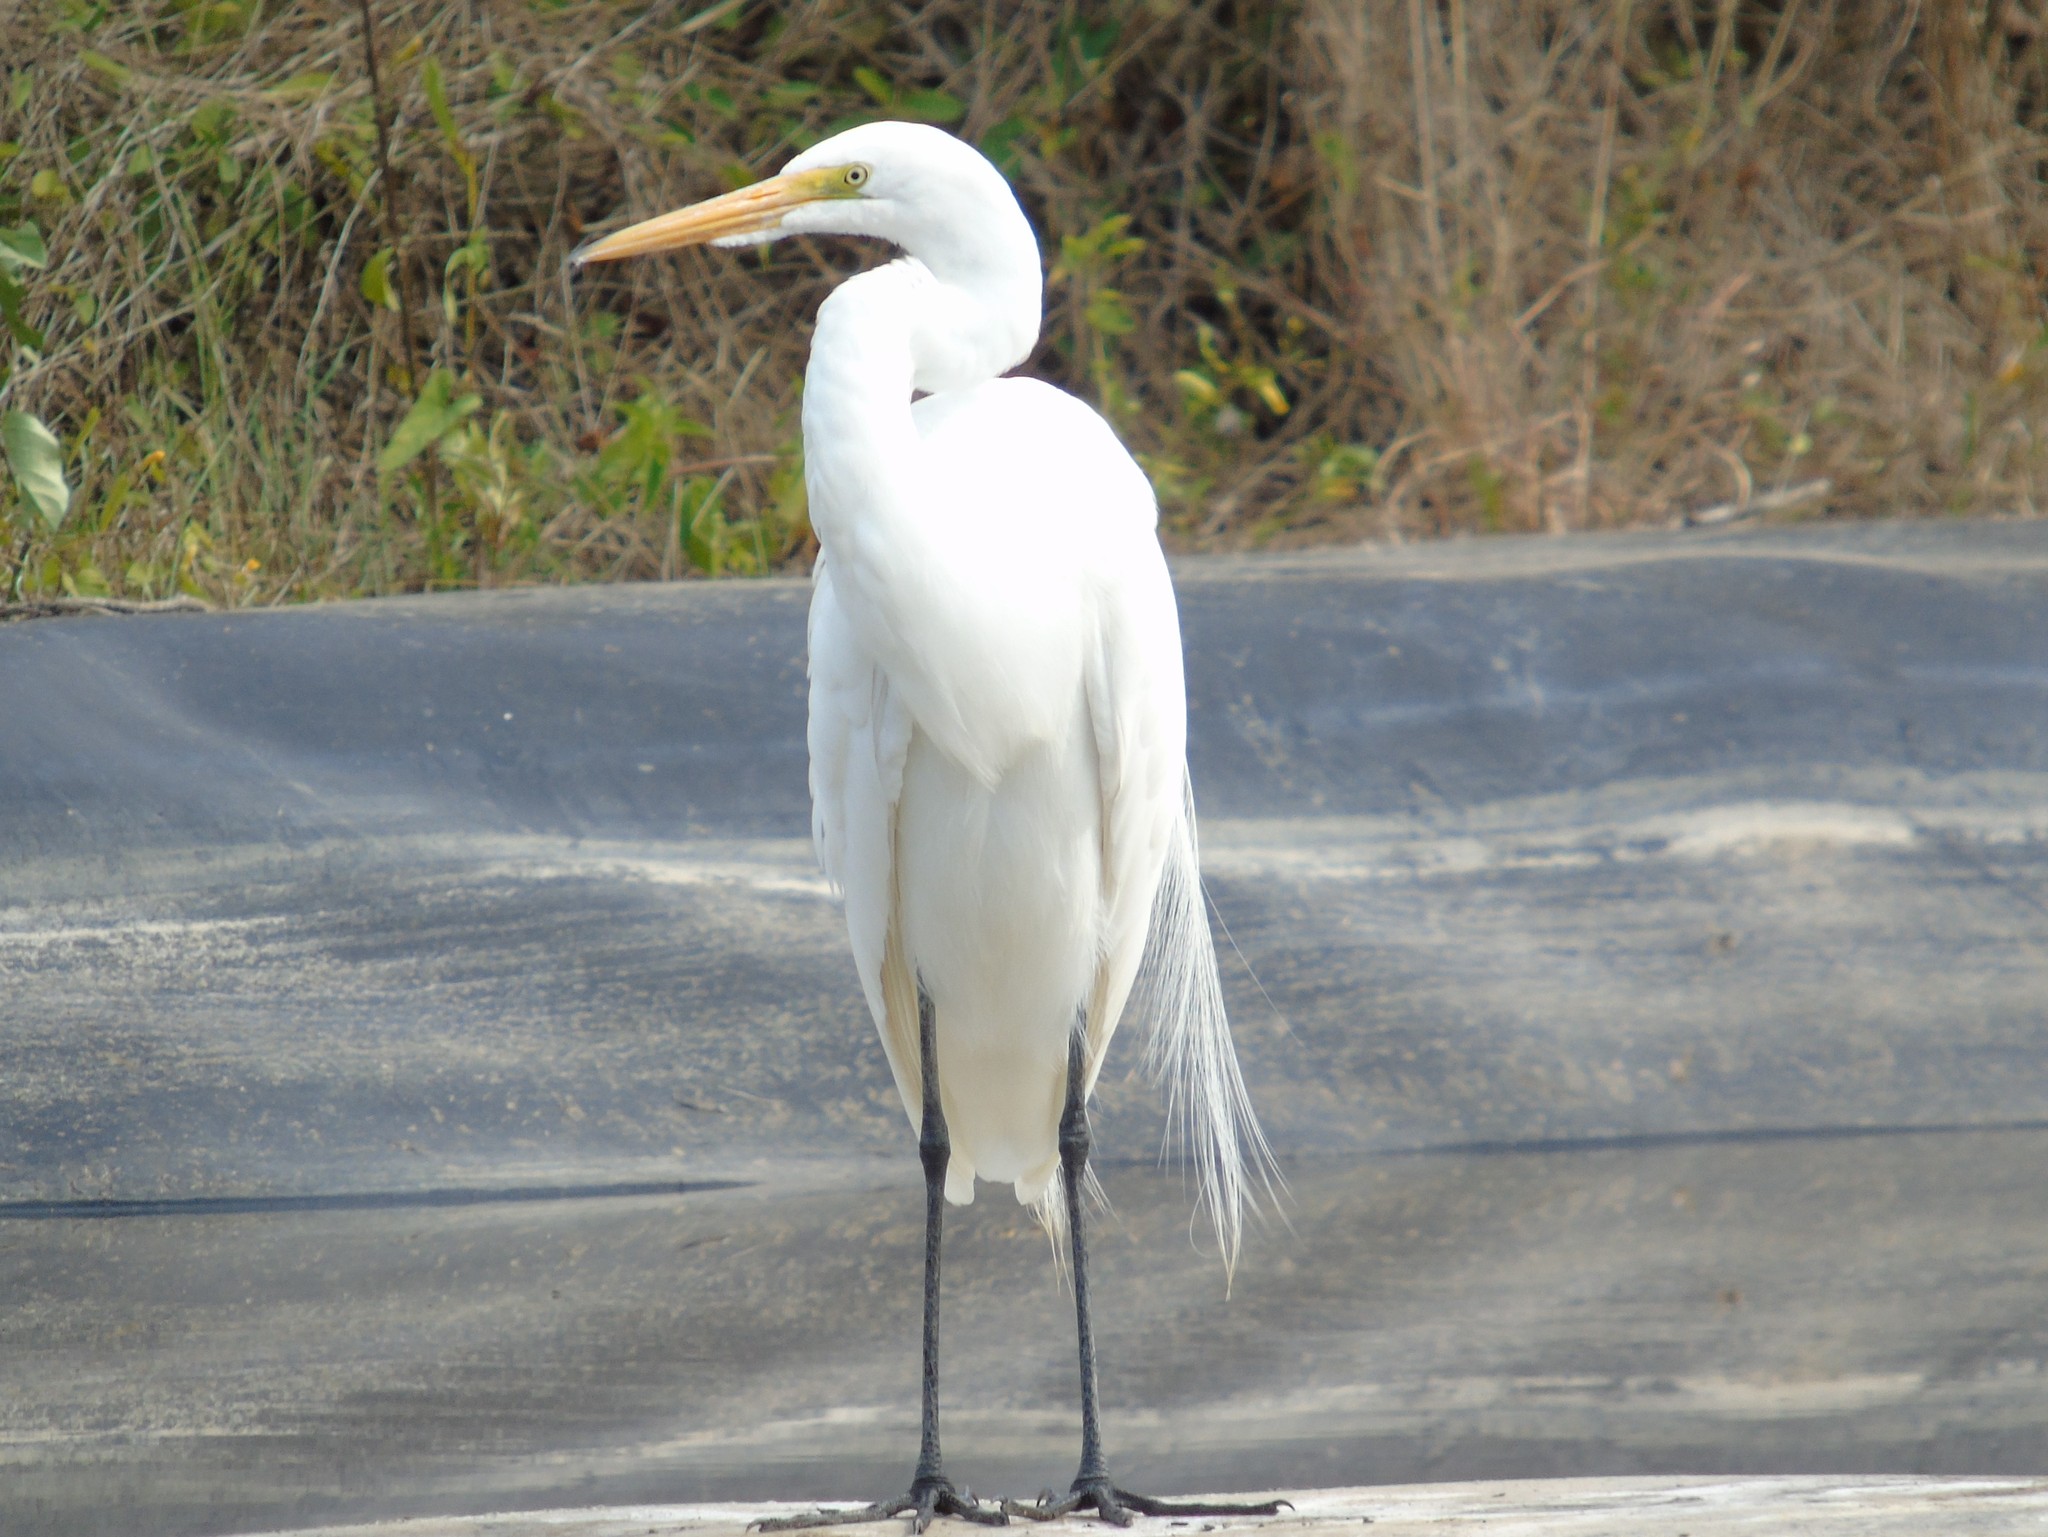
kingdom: Animalia
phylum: Chordata
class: Aves
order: Pelecaniformes
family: Ardeidae
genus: Ardea
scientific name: Ardea alba
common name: Great egret
